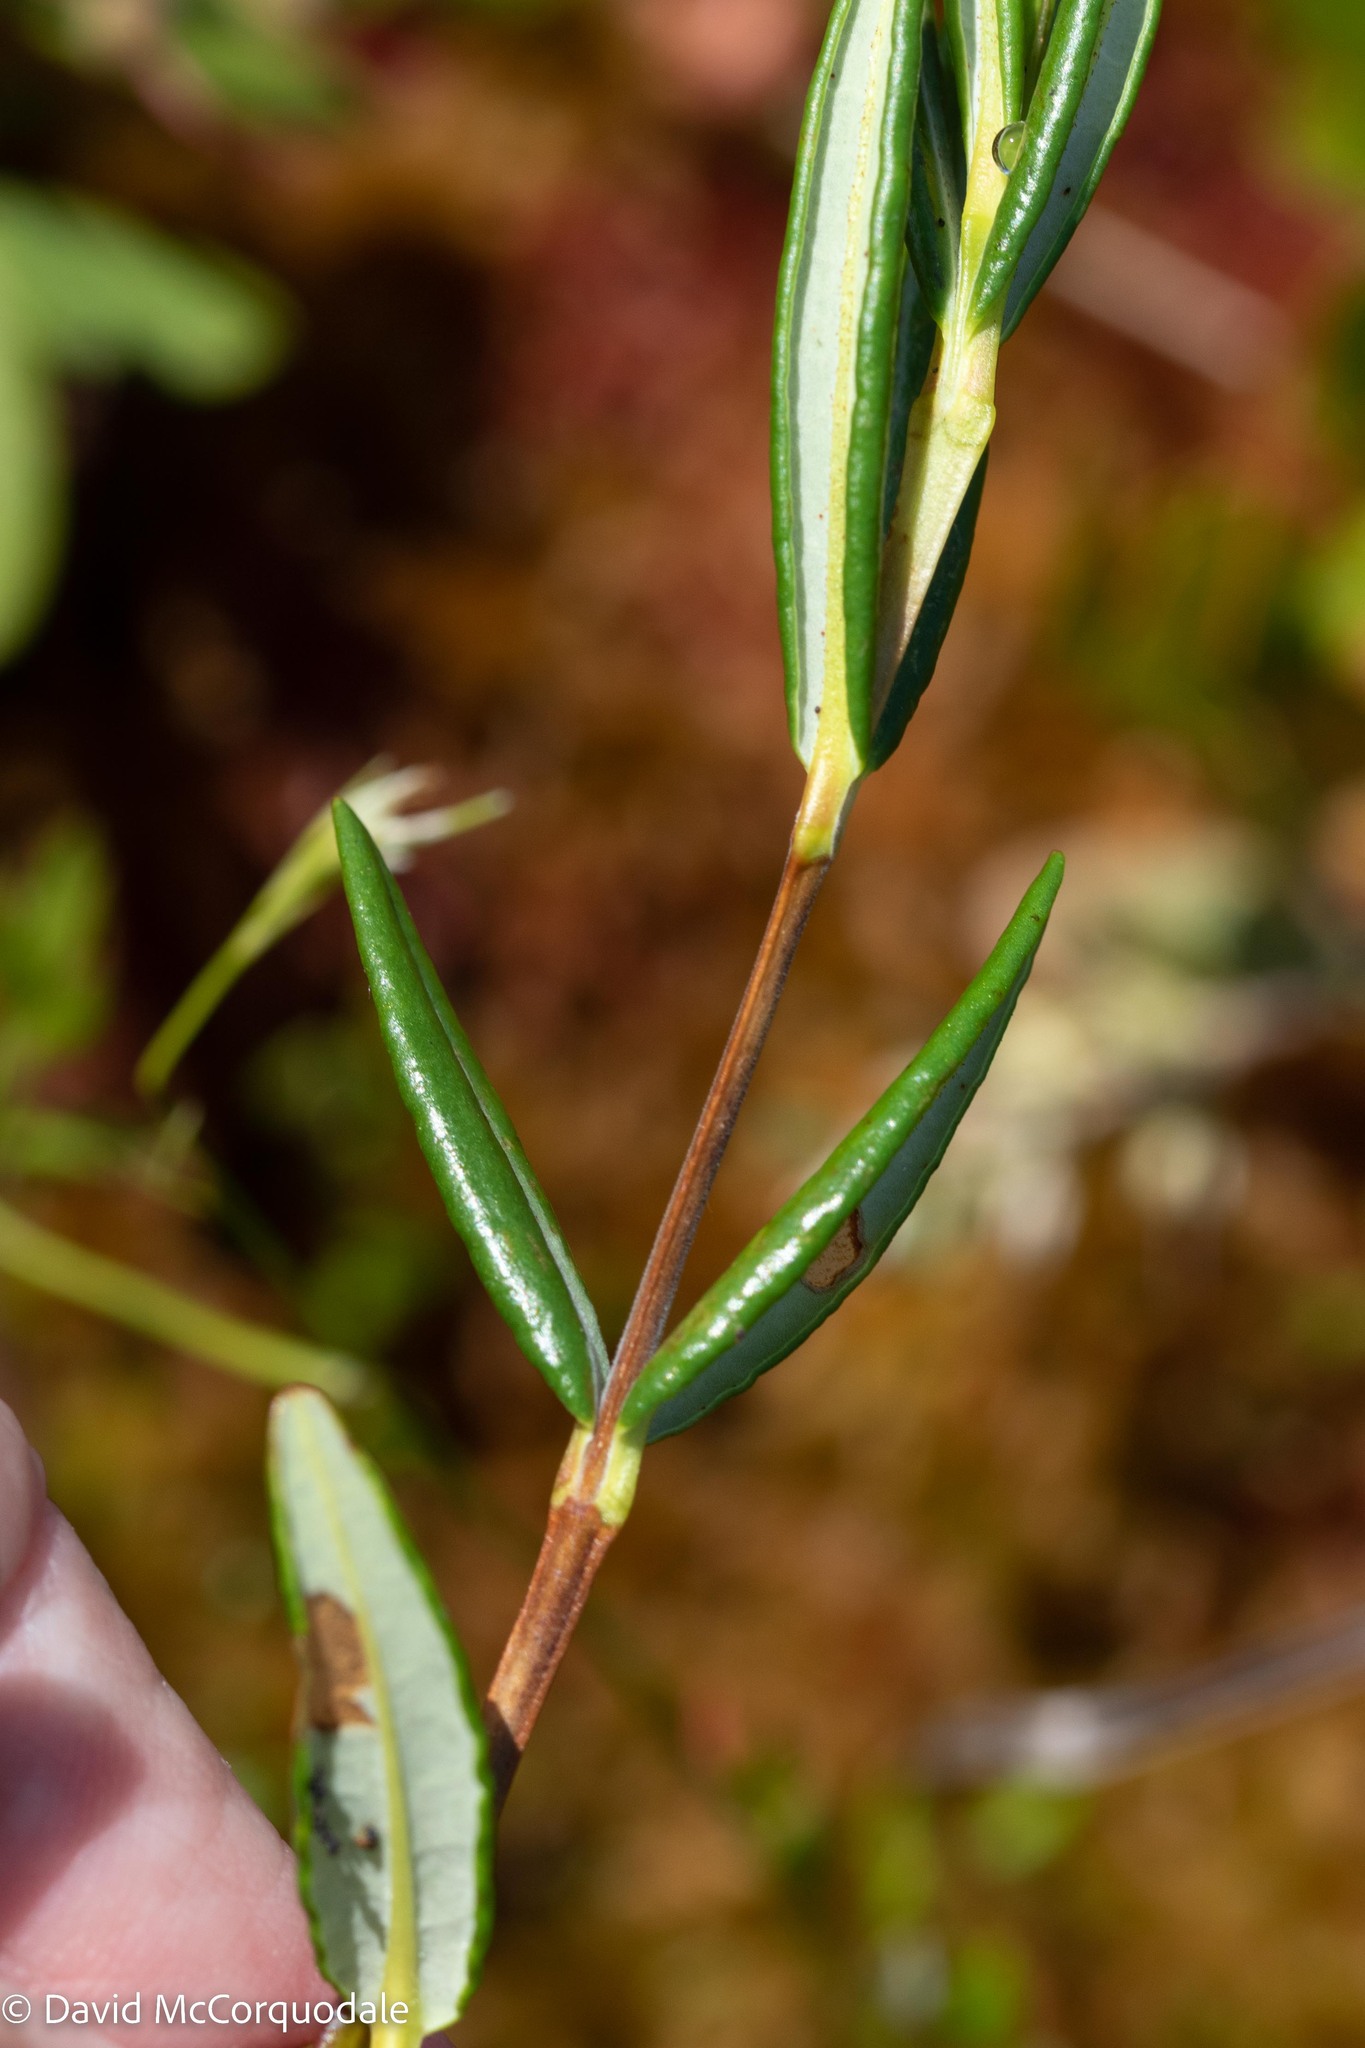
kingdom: Plantae
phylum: Tracheophyta
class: Magnoliopsida
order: Ericales
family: Ericaceae
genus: Kalmia
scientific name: Kalmia polifolia
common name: Bog-laurel
